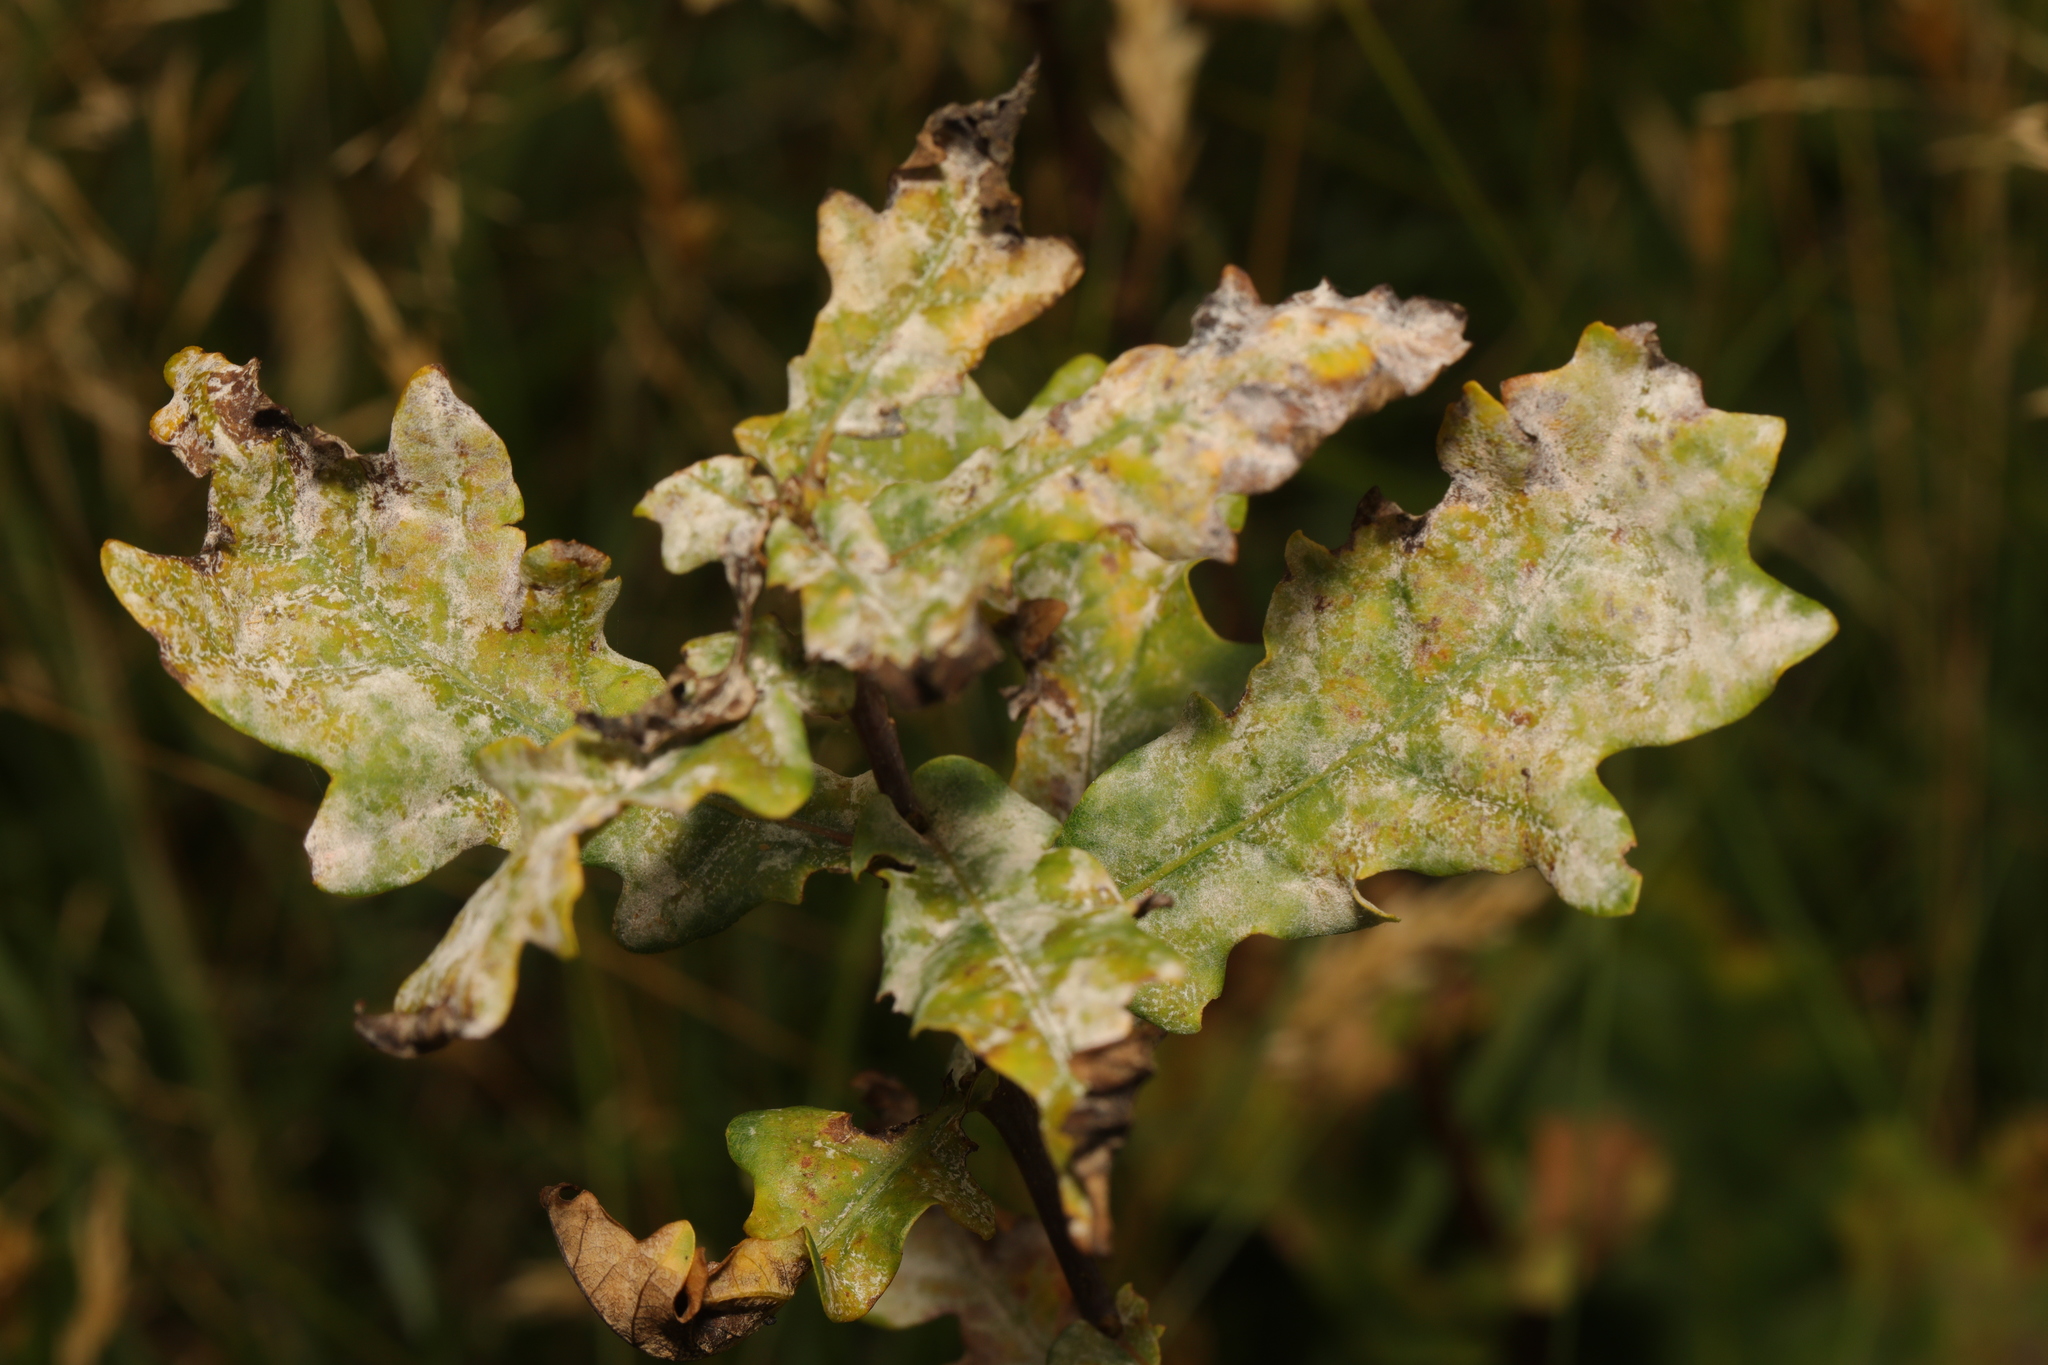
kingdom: Fungi
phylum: Ascomycota
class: Leotiomycetes
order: Helotiales
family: Erysiphaceae
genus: Erysiphe
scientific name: Erysiphe alphitoides
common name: Oak mildew
